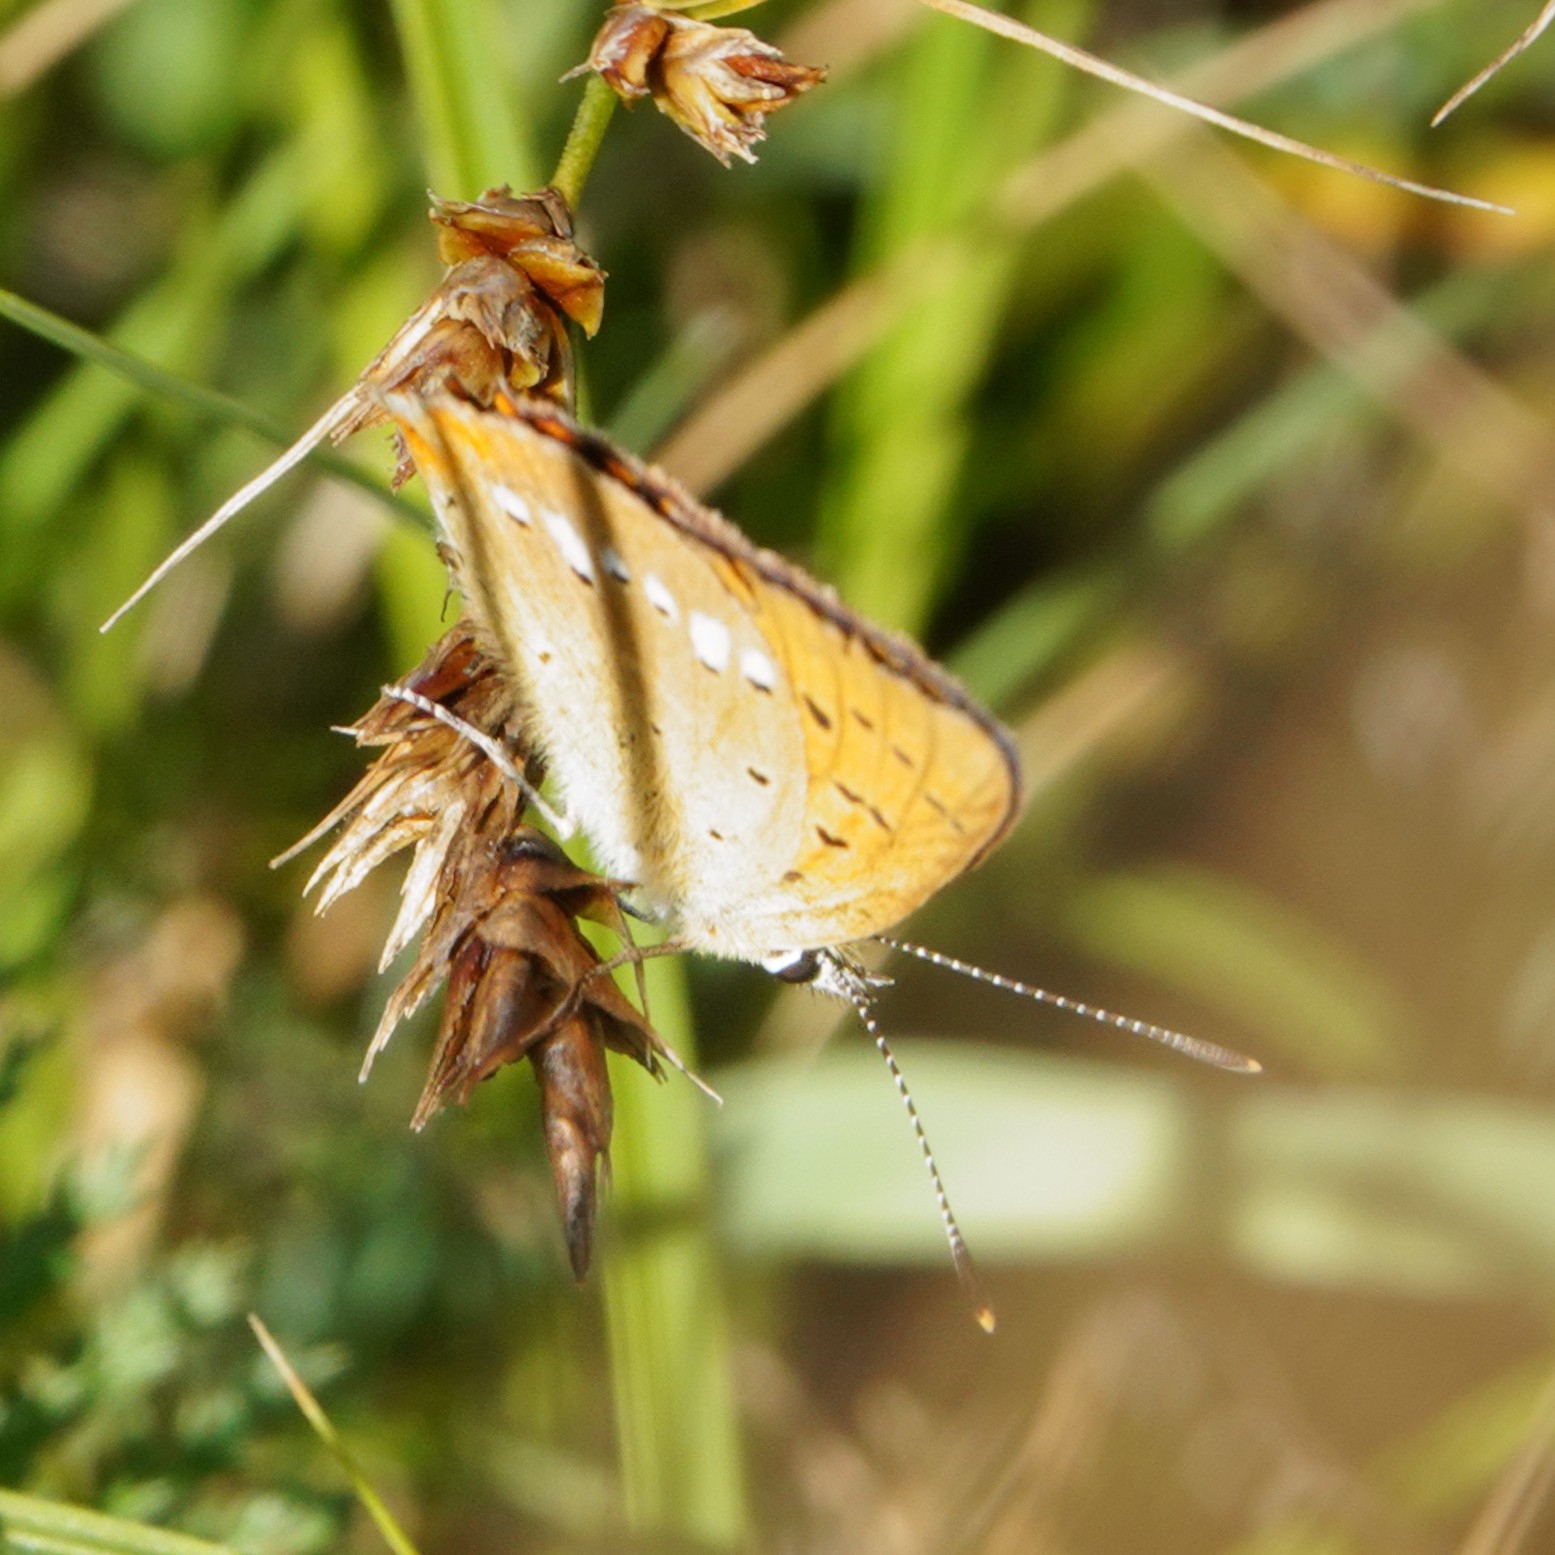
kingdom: Animalia
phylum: Arthropoda
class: Insecta
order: Lepidoptera
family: Lycaenidae
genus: Lycaena
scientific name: Lycaena virgaureae
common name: Scarce copper
